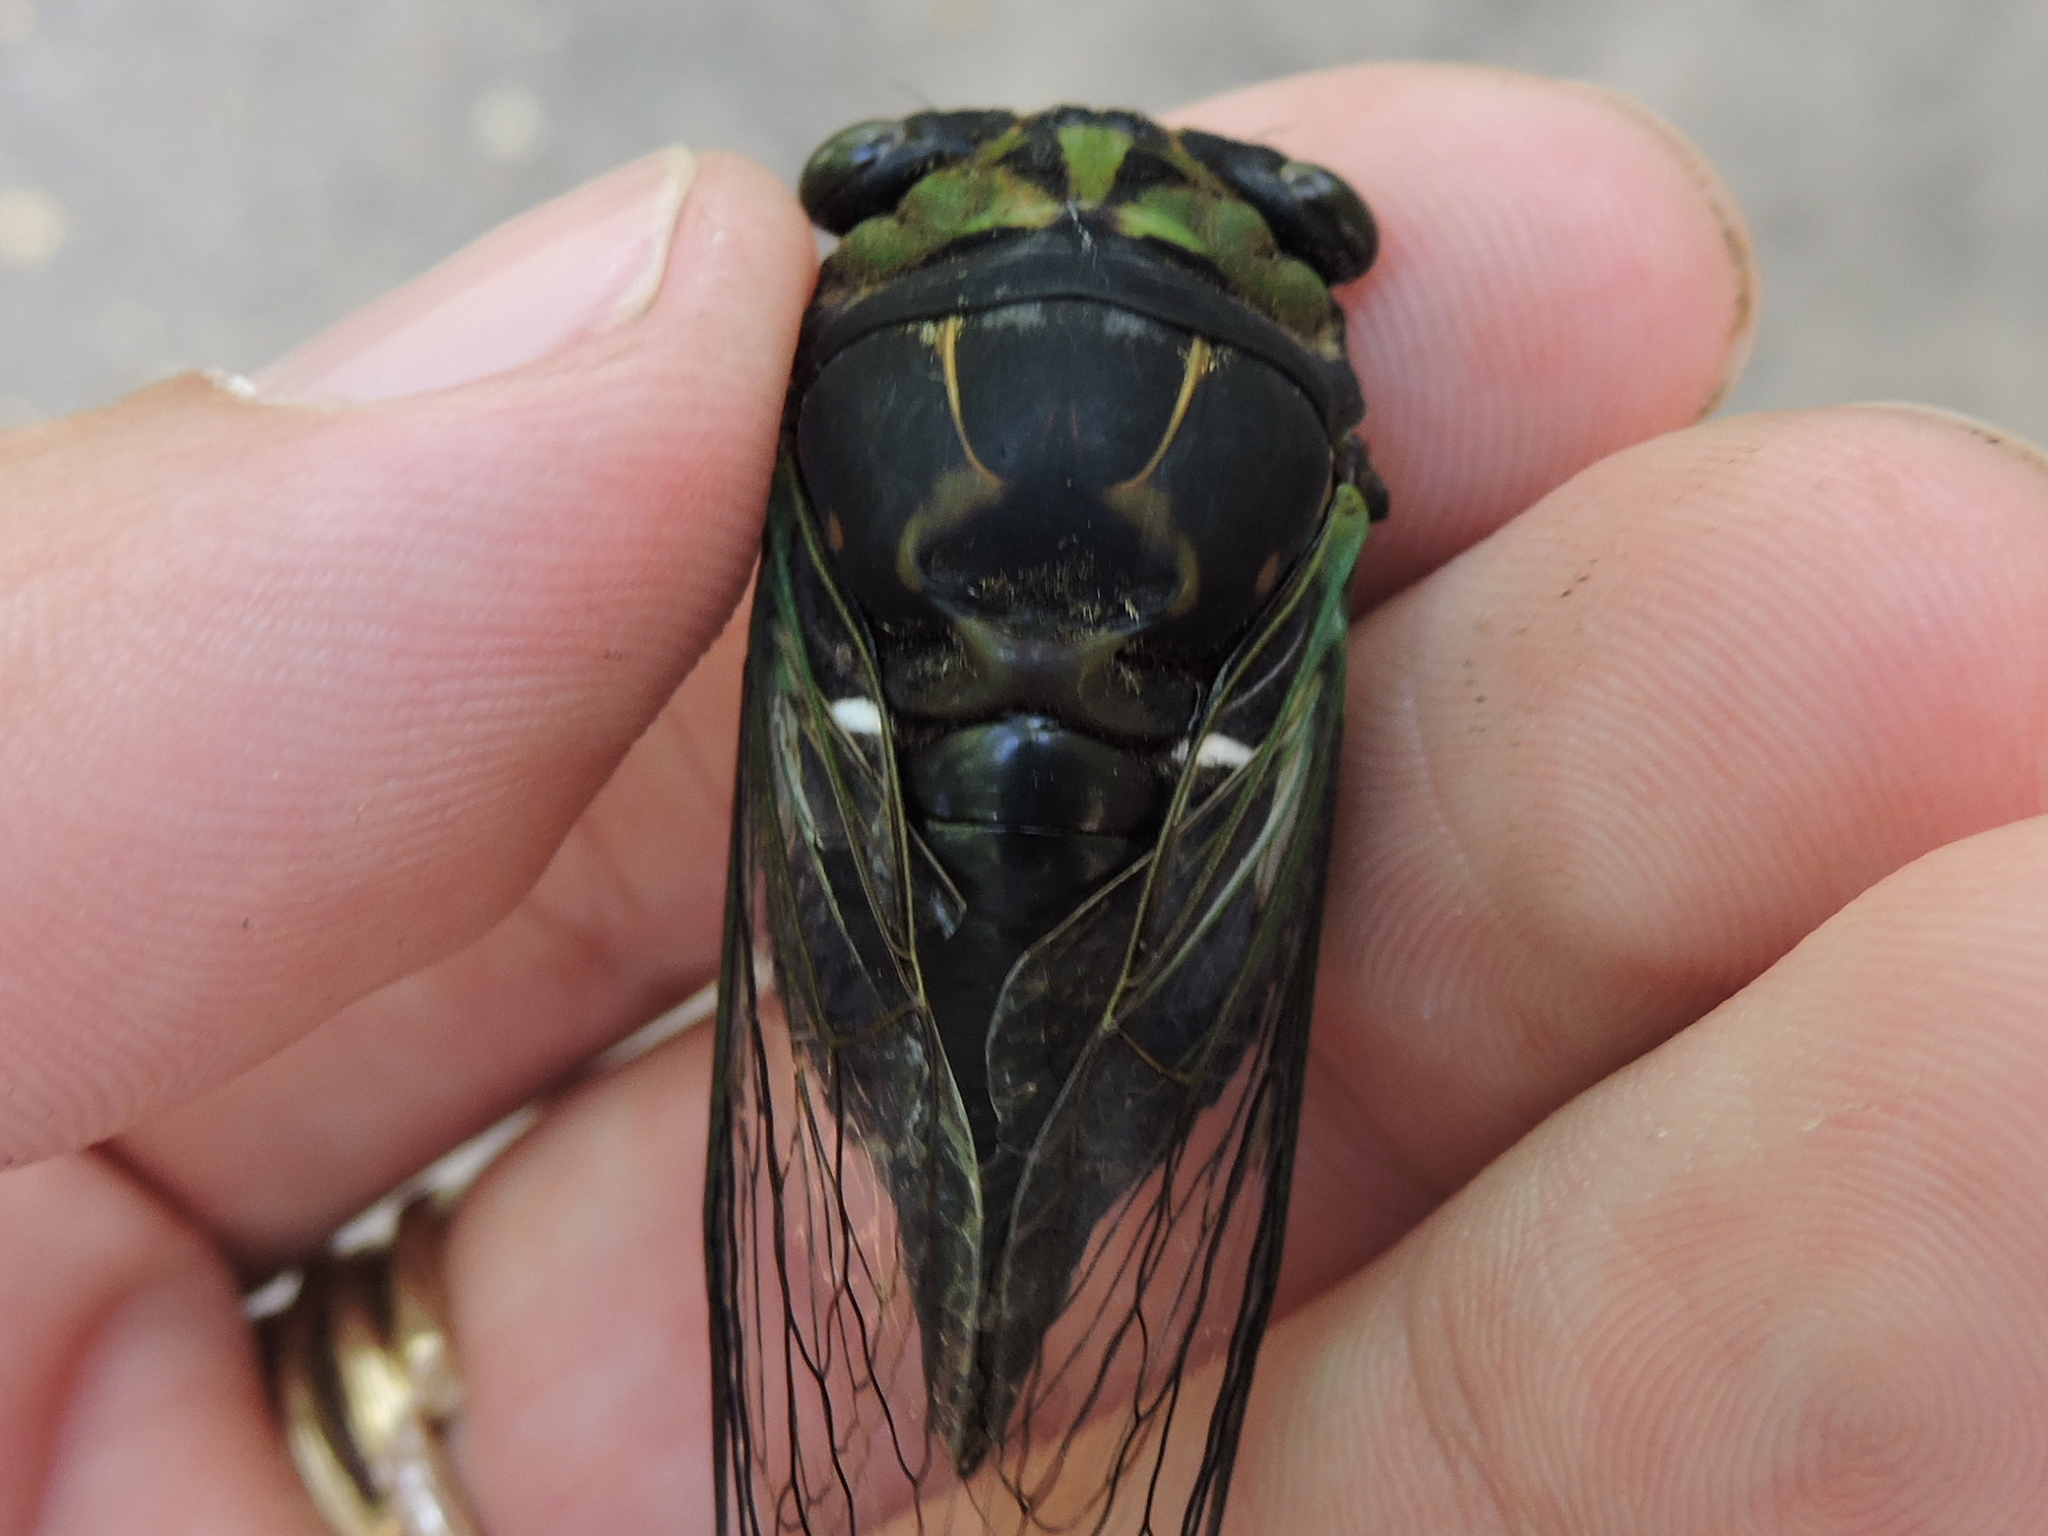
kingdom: Animalia
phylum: Arthropoda
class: Insecta
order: Hemiptera
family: Cicadidae
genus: Neotibicen
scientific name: Neotibicen tibicen
